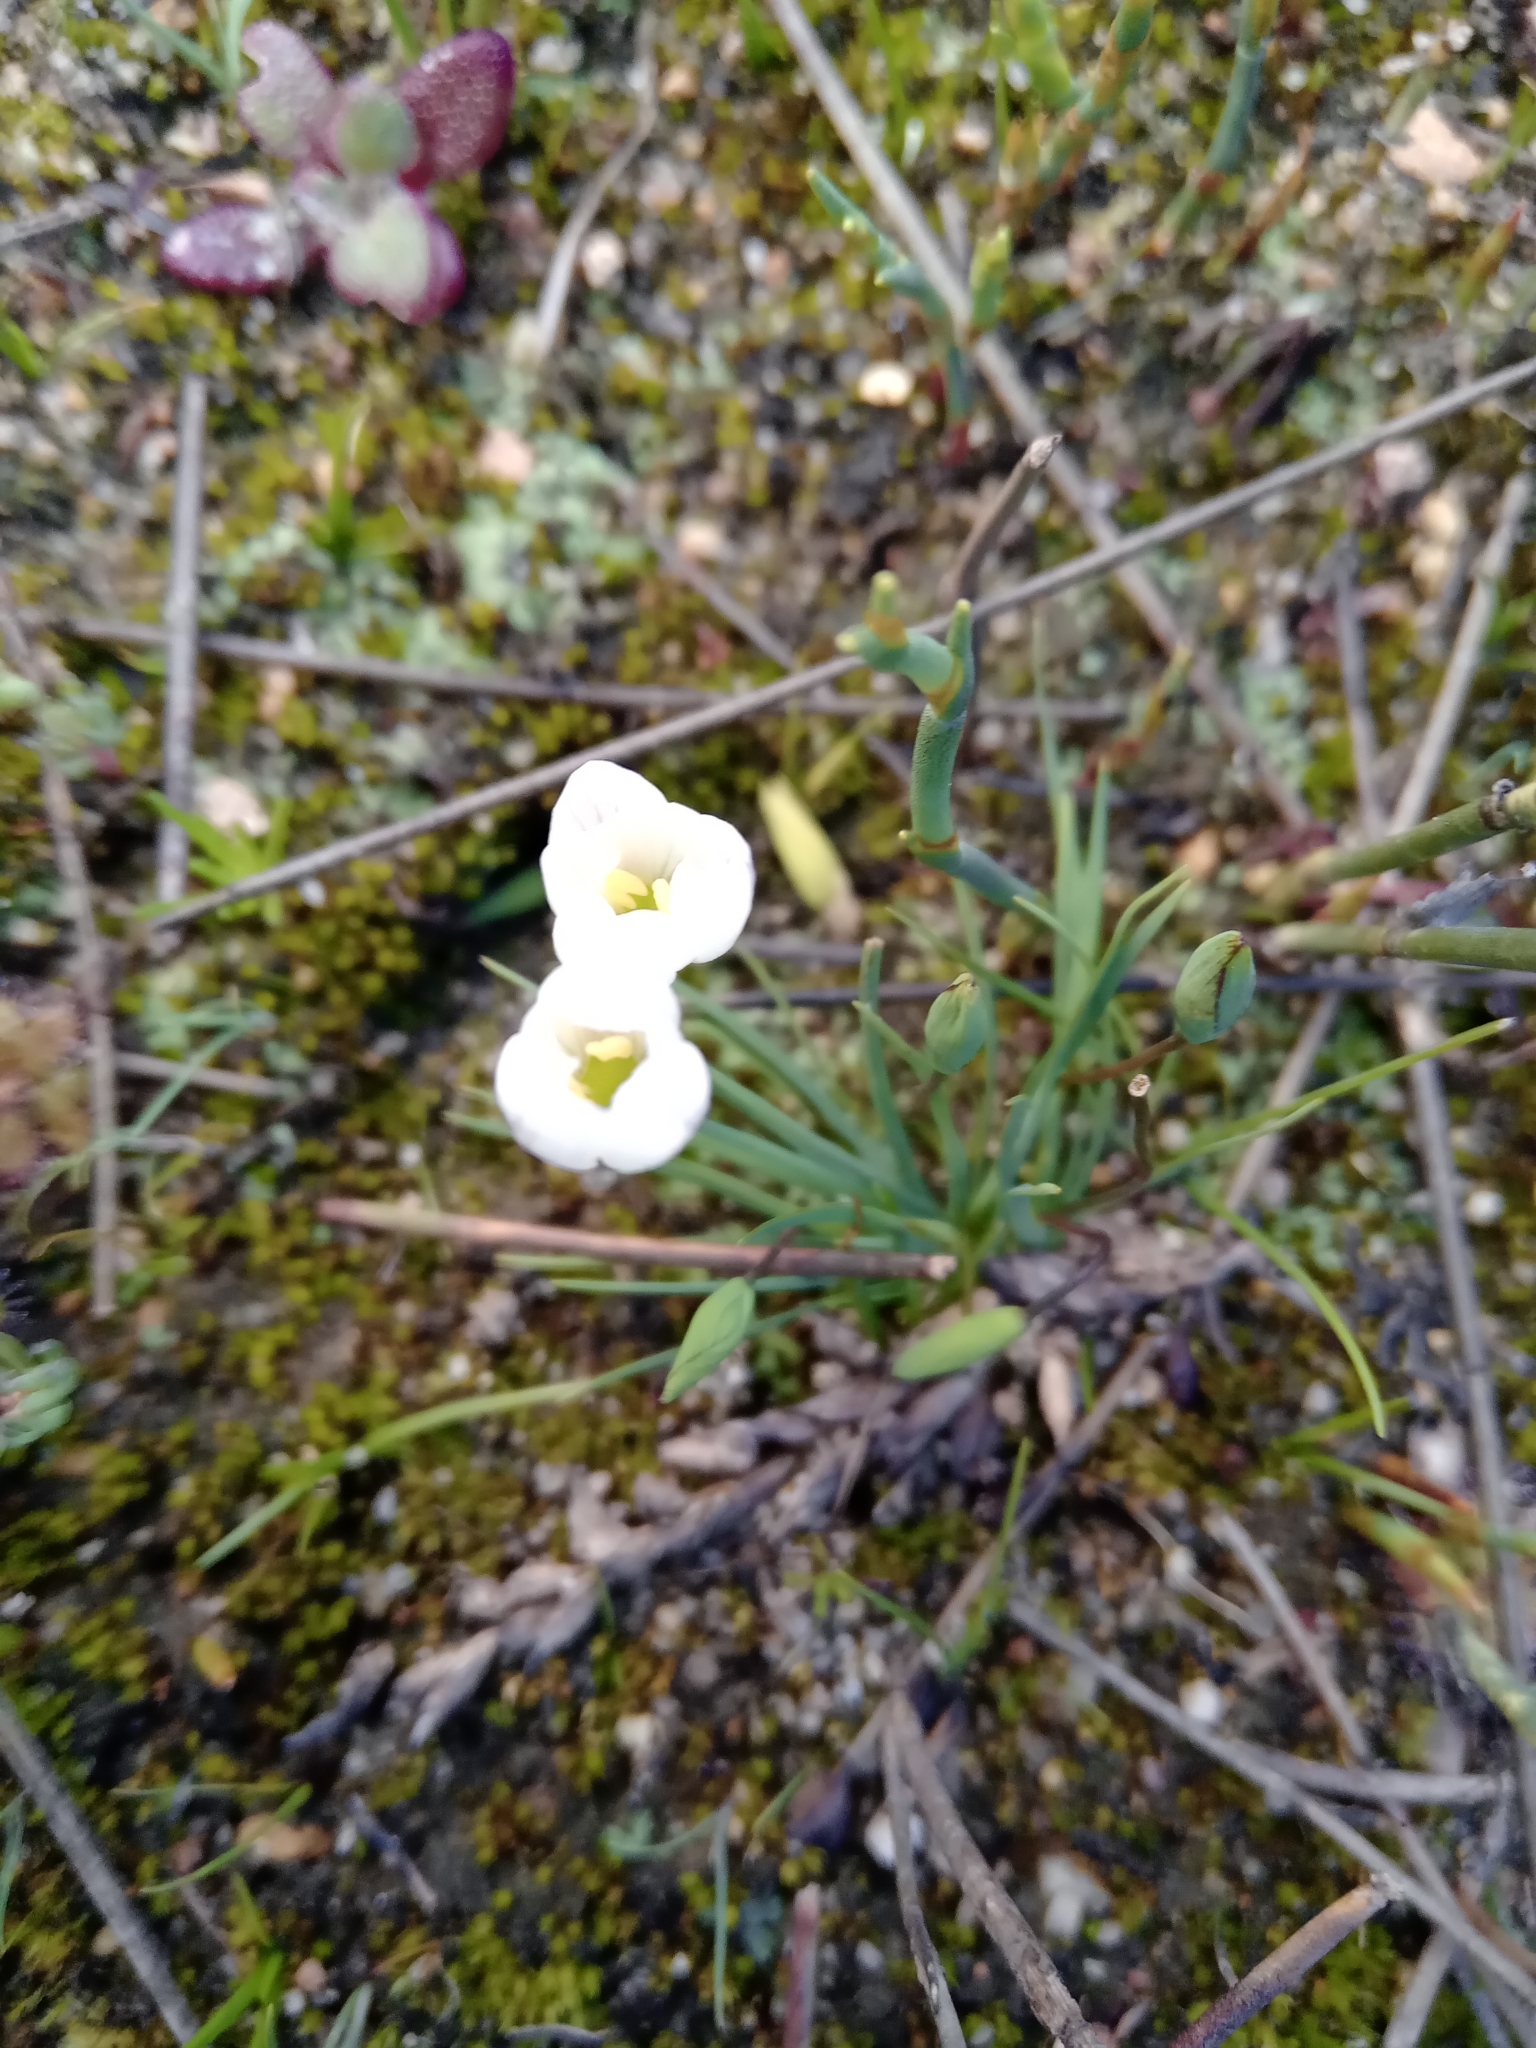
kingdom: Plantae
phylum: Tracheophyta
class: Liliopsida
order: Asparagales
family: Iridaceae
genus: Geissorhiza
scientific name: Geissorhiza setacea
